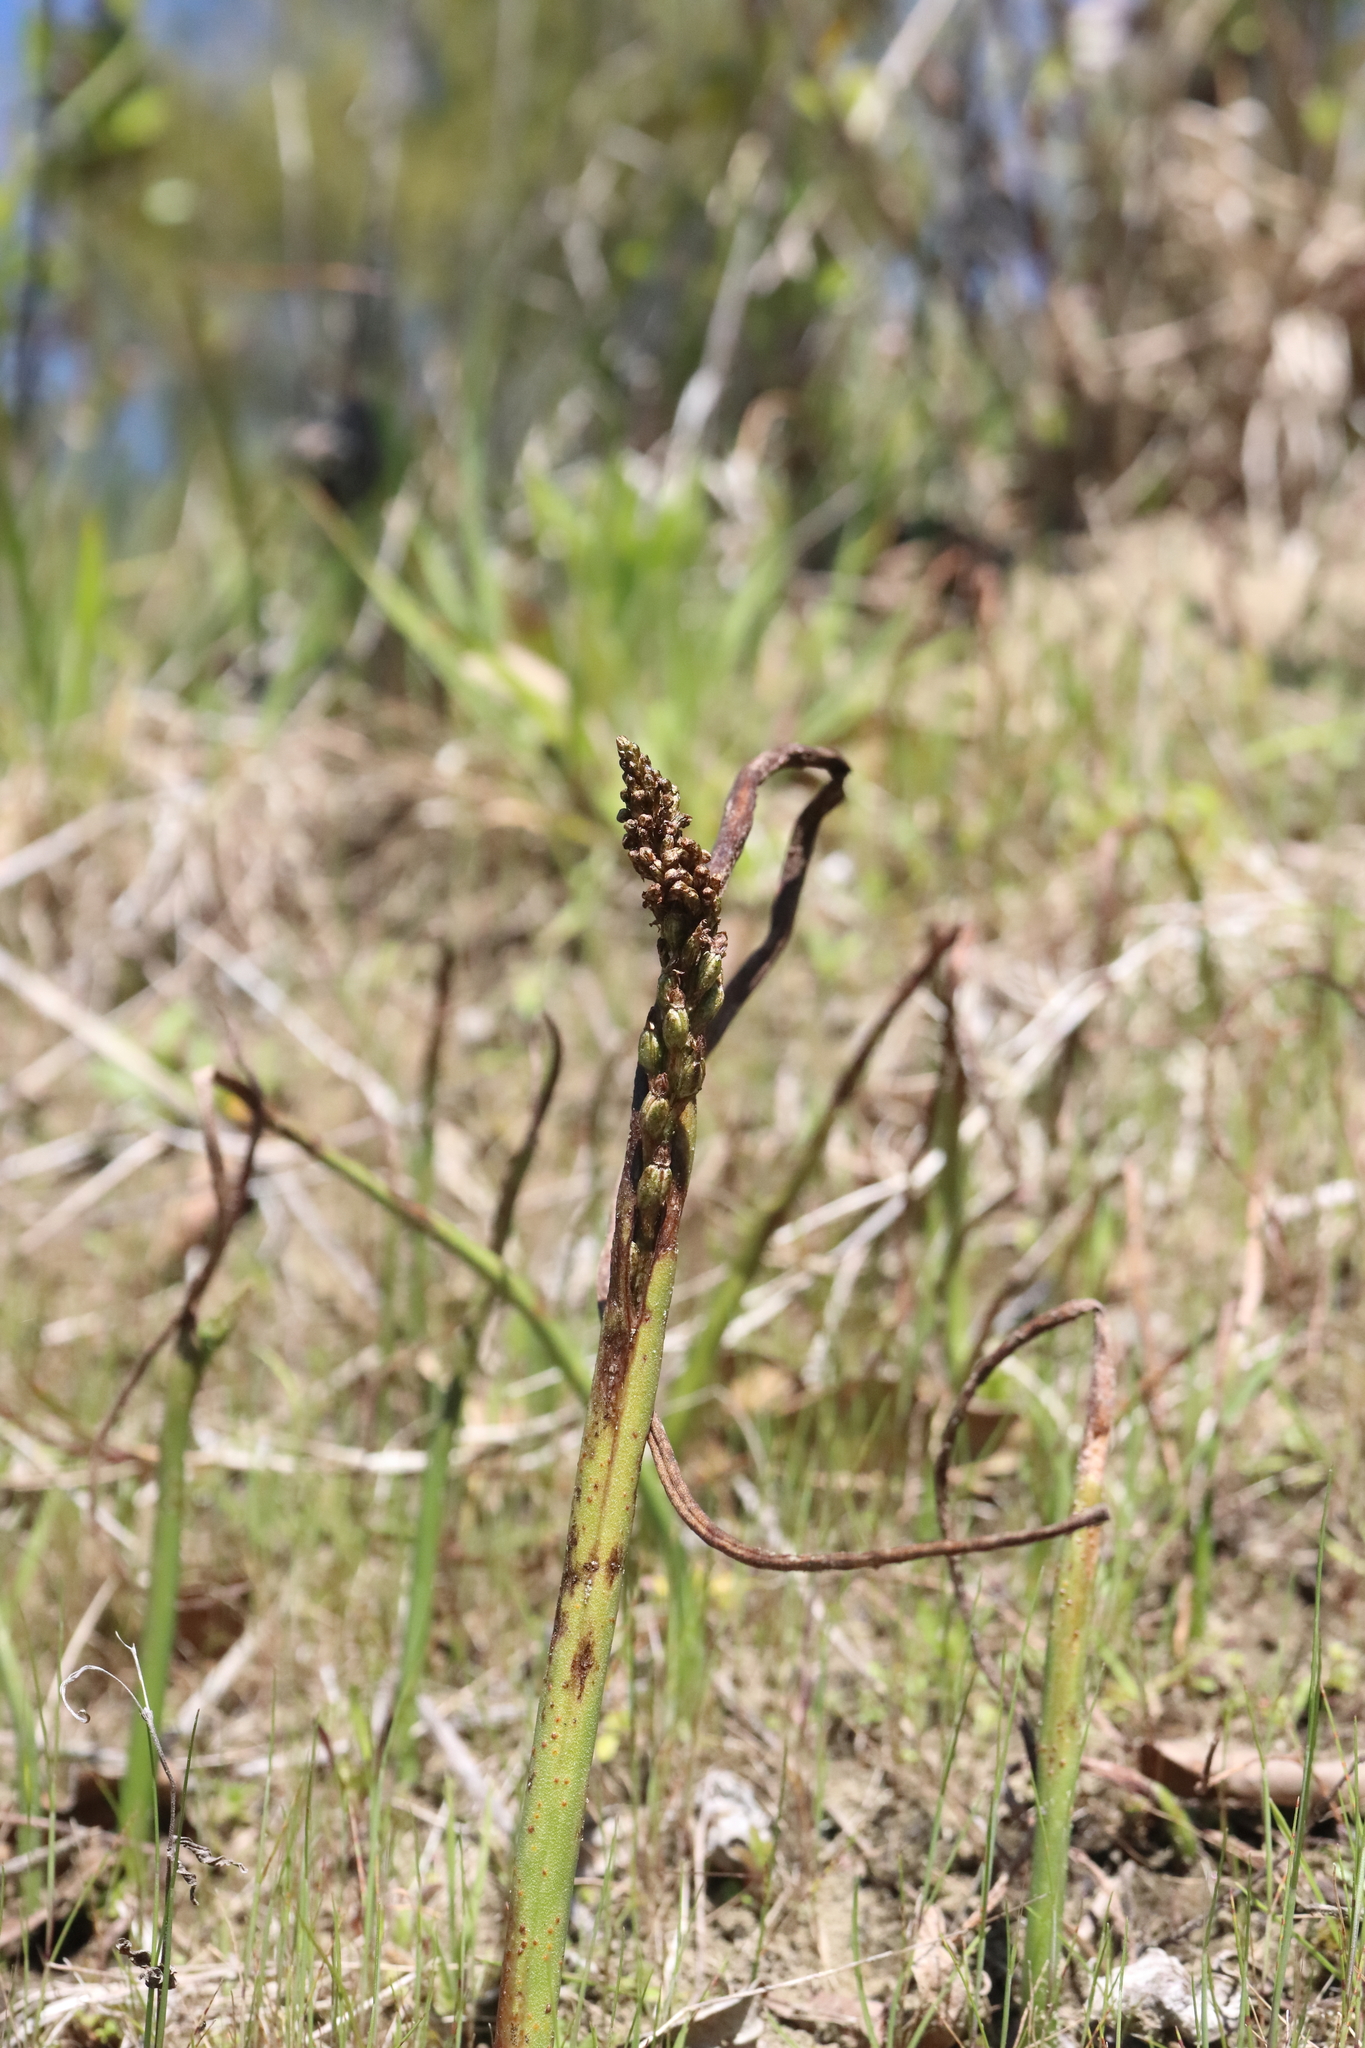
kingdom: Plantae
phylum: Tracheophyta
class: Liliopsida
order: Asparagales
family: Orchidaceae
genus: Microtis
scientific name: Microtis unifolia
